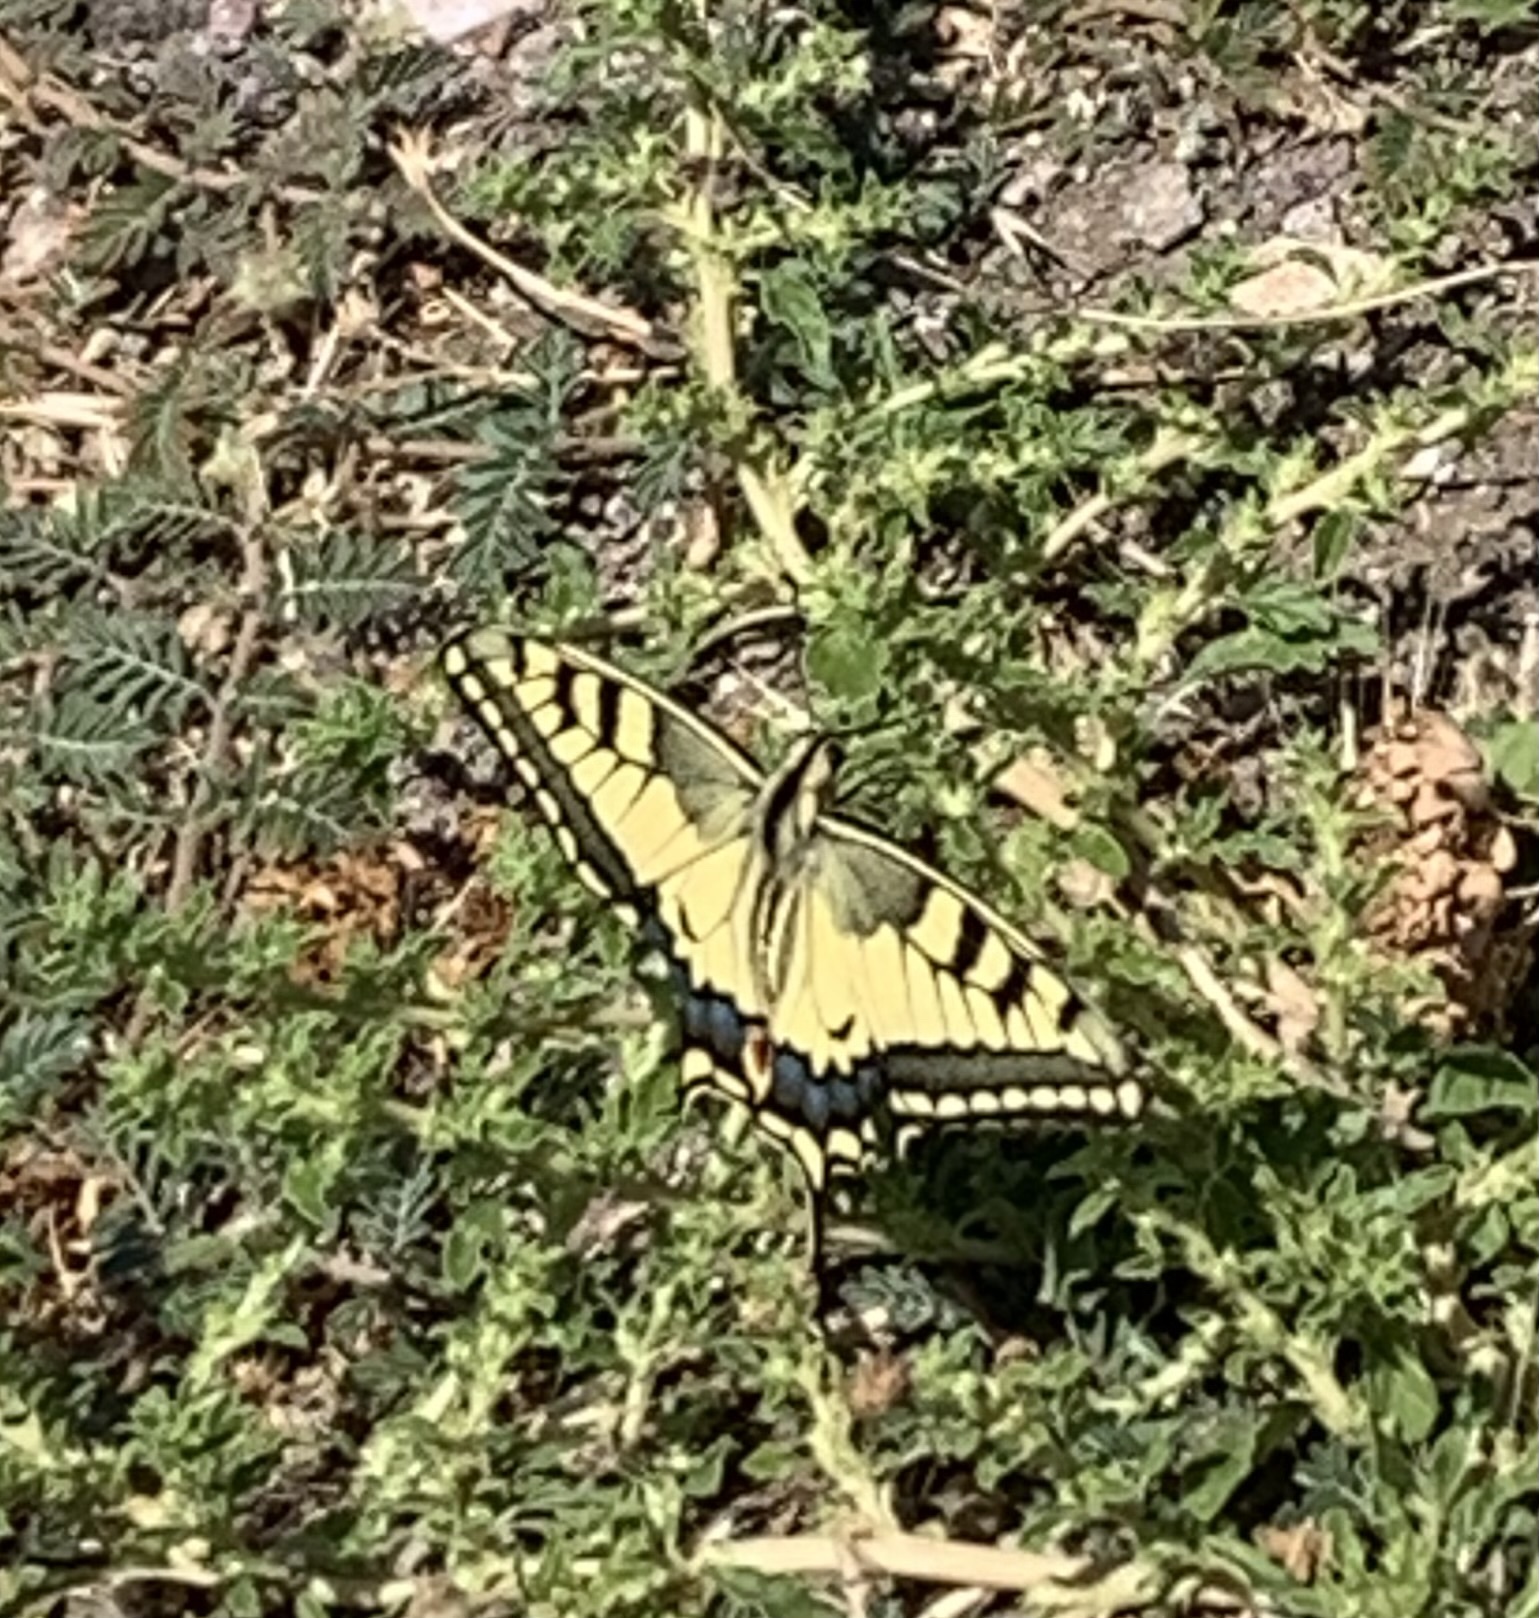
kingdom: Animalia
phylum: Arthropoda
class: Insecta
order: Lepidoptera
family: Papilionidae
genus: Papilio
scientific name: Papilio machaon
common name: Swallowtail
